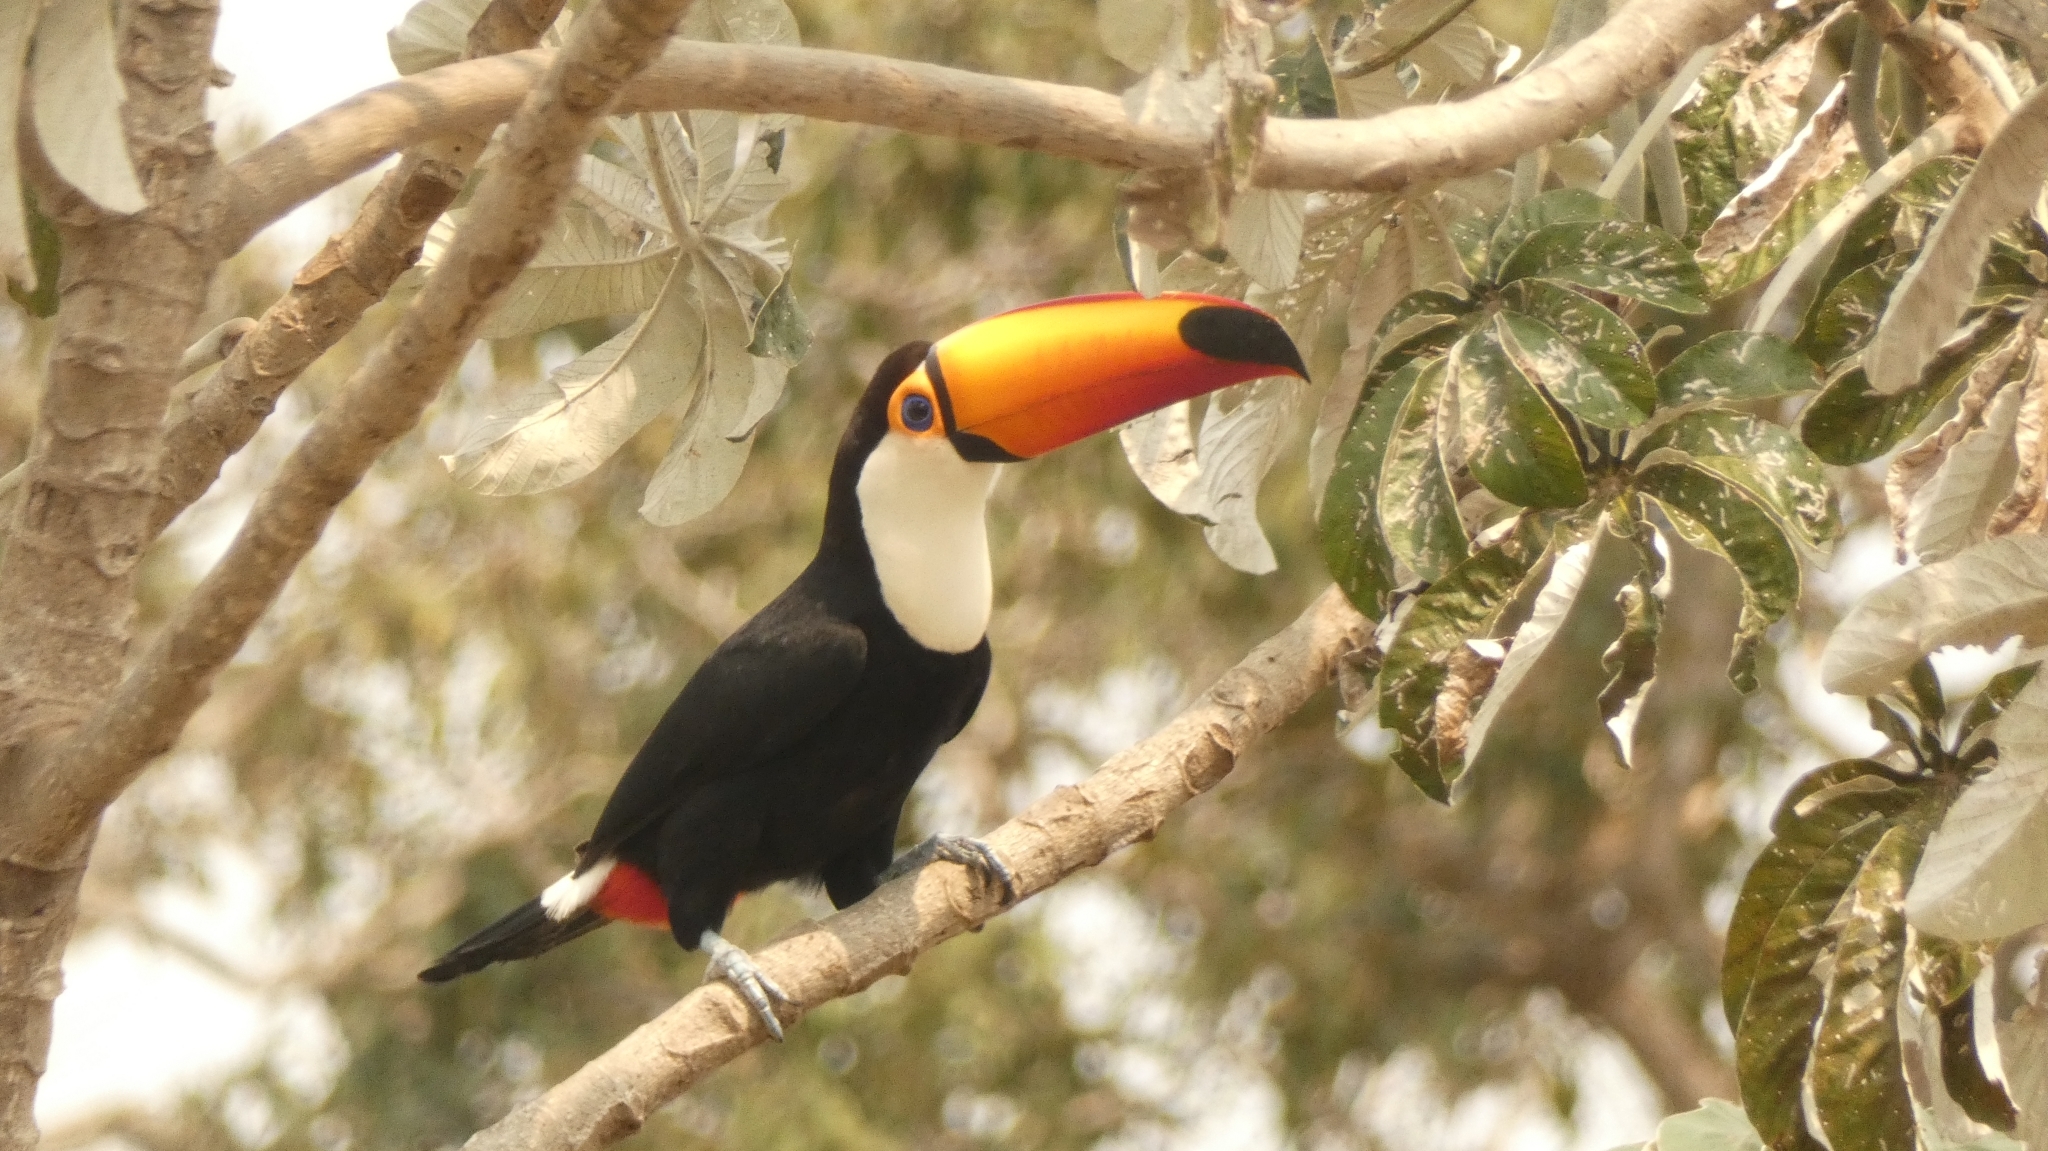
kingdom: Animalia
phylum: Chordata
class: Aves
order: Piciformes
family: Ramphastidae
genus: Ramphastos
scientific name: Ramphastos toco
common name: Toco toucan
